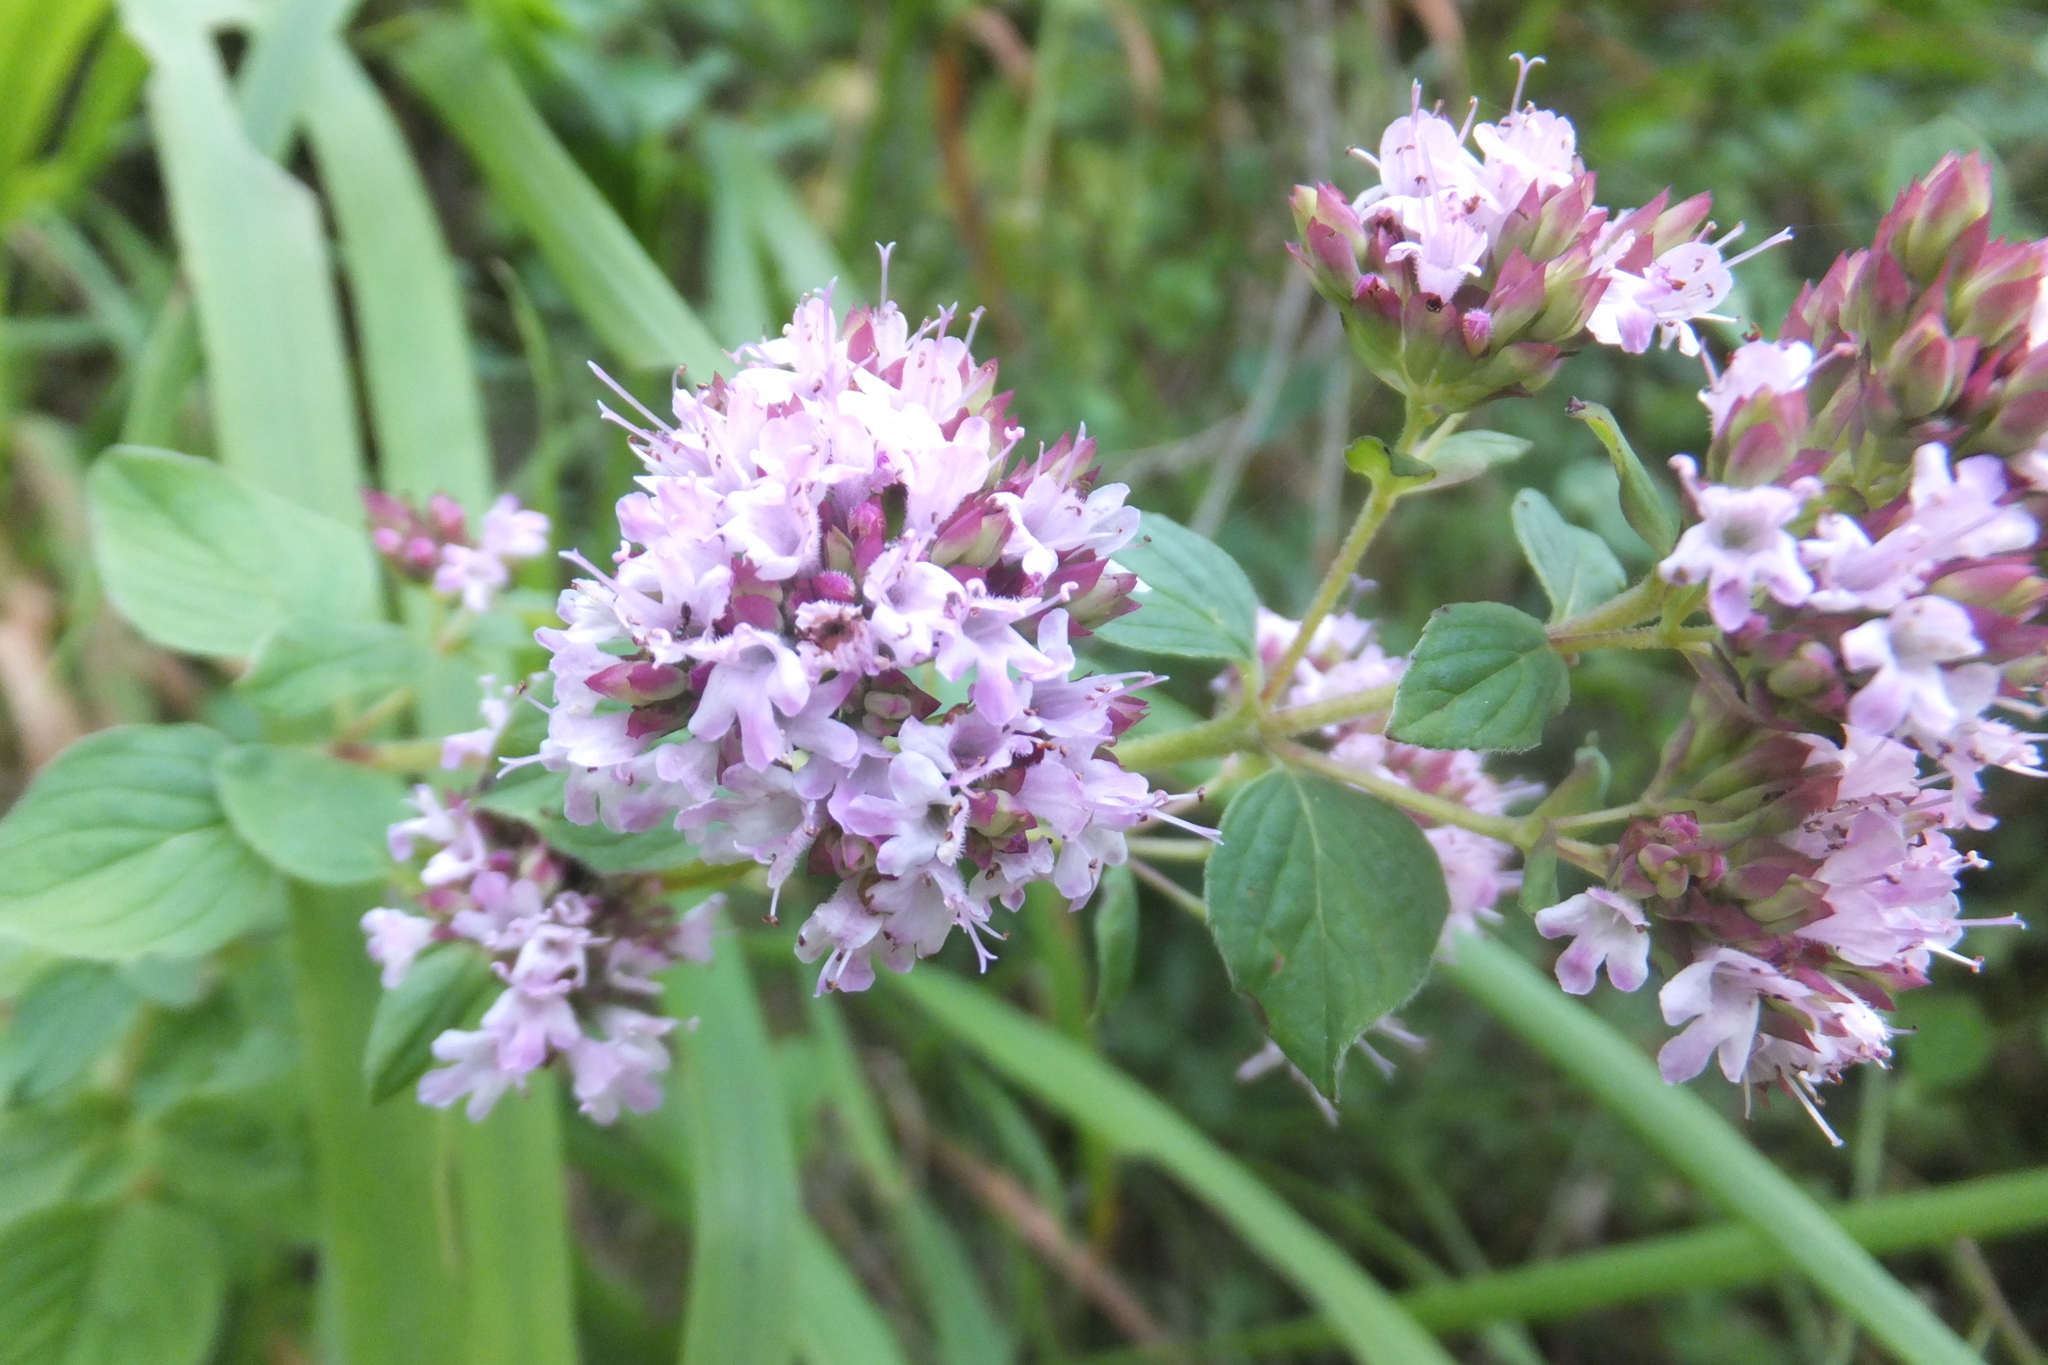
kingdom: Plantae
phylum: Tracheophyta
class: Magnoliopsida
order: Lamiales
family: Lamiaceae
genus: Origanum
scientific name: Origanum vulgare
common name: Wild marjoram
